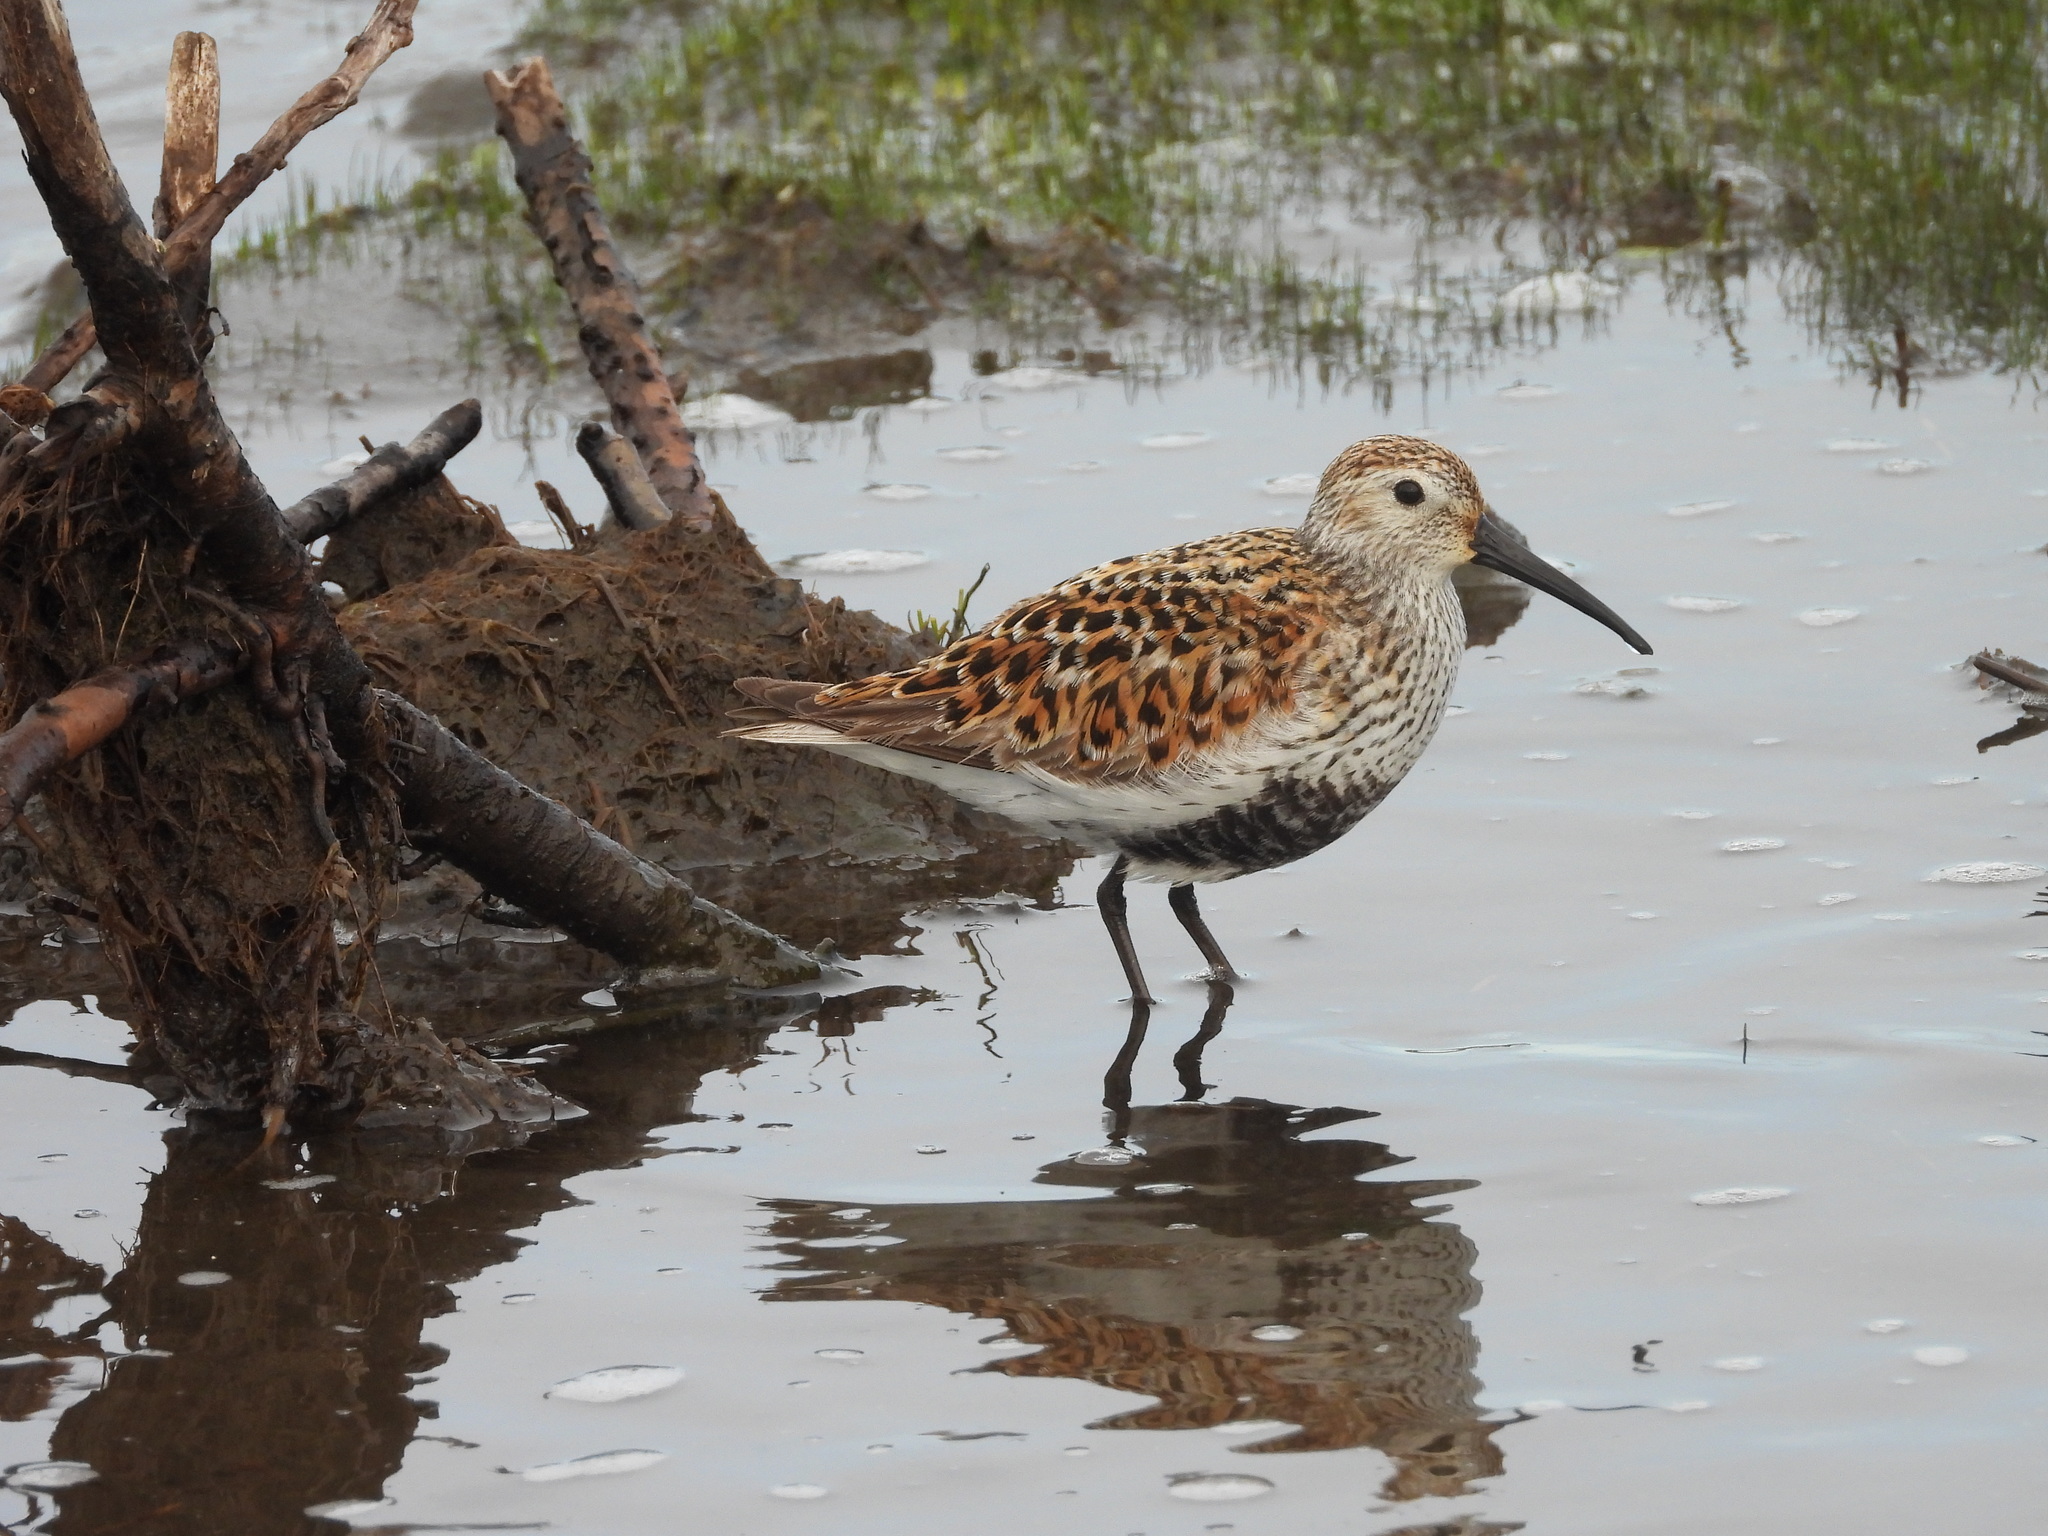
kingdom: Animalia
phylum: Chordata
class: Aves
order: Charadriiformes
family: Scolopacidae
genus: Calidris
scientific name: Calidris alpina
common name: Dunlin
